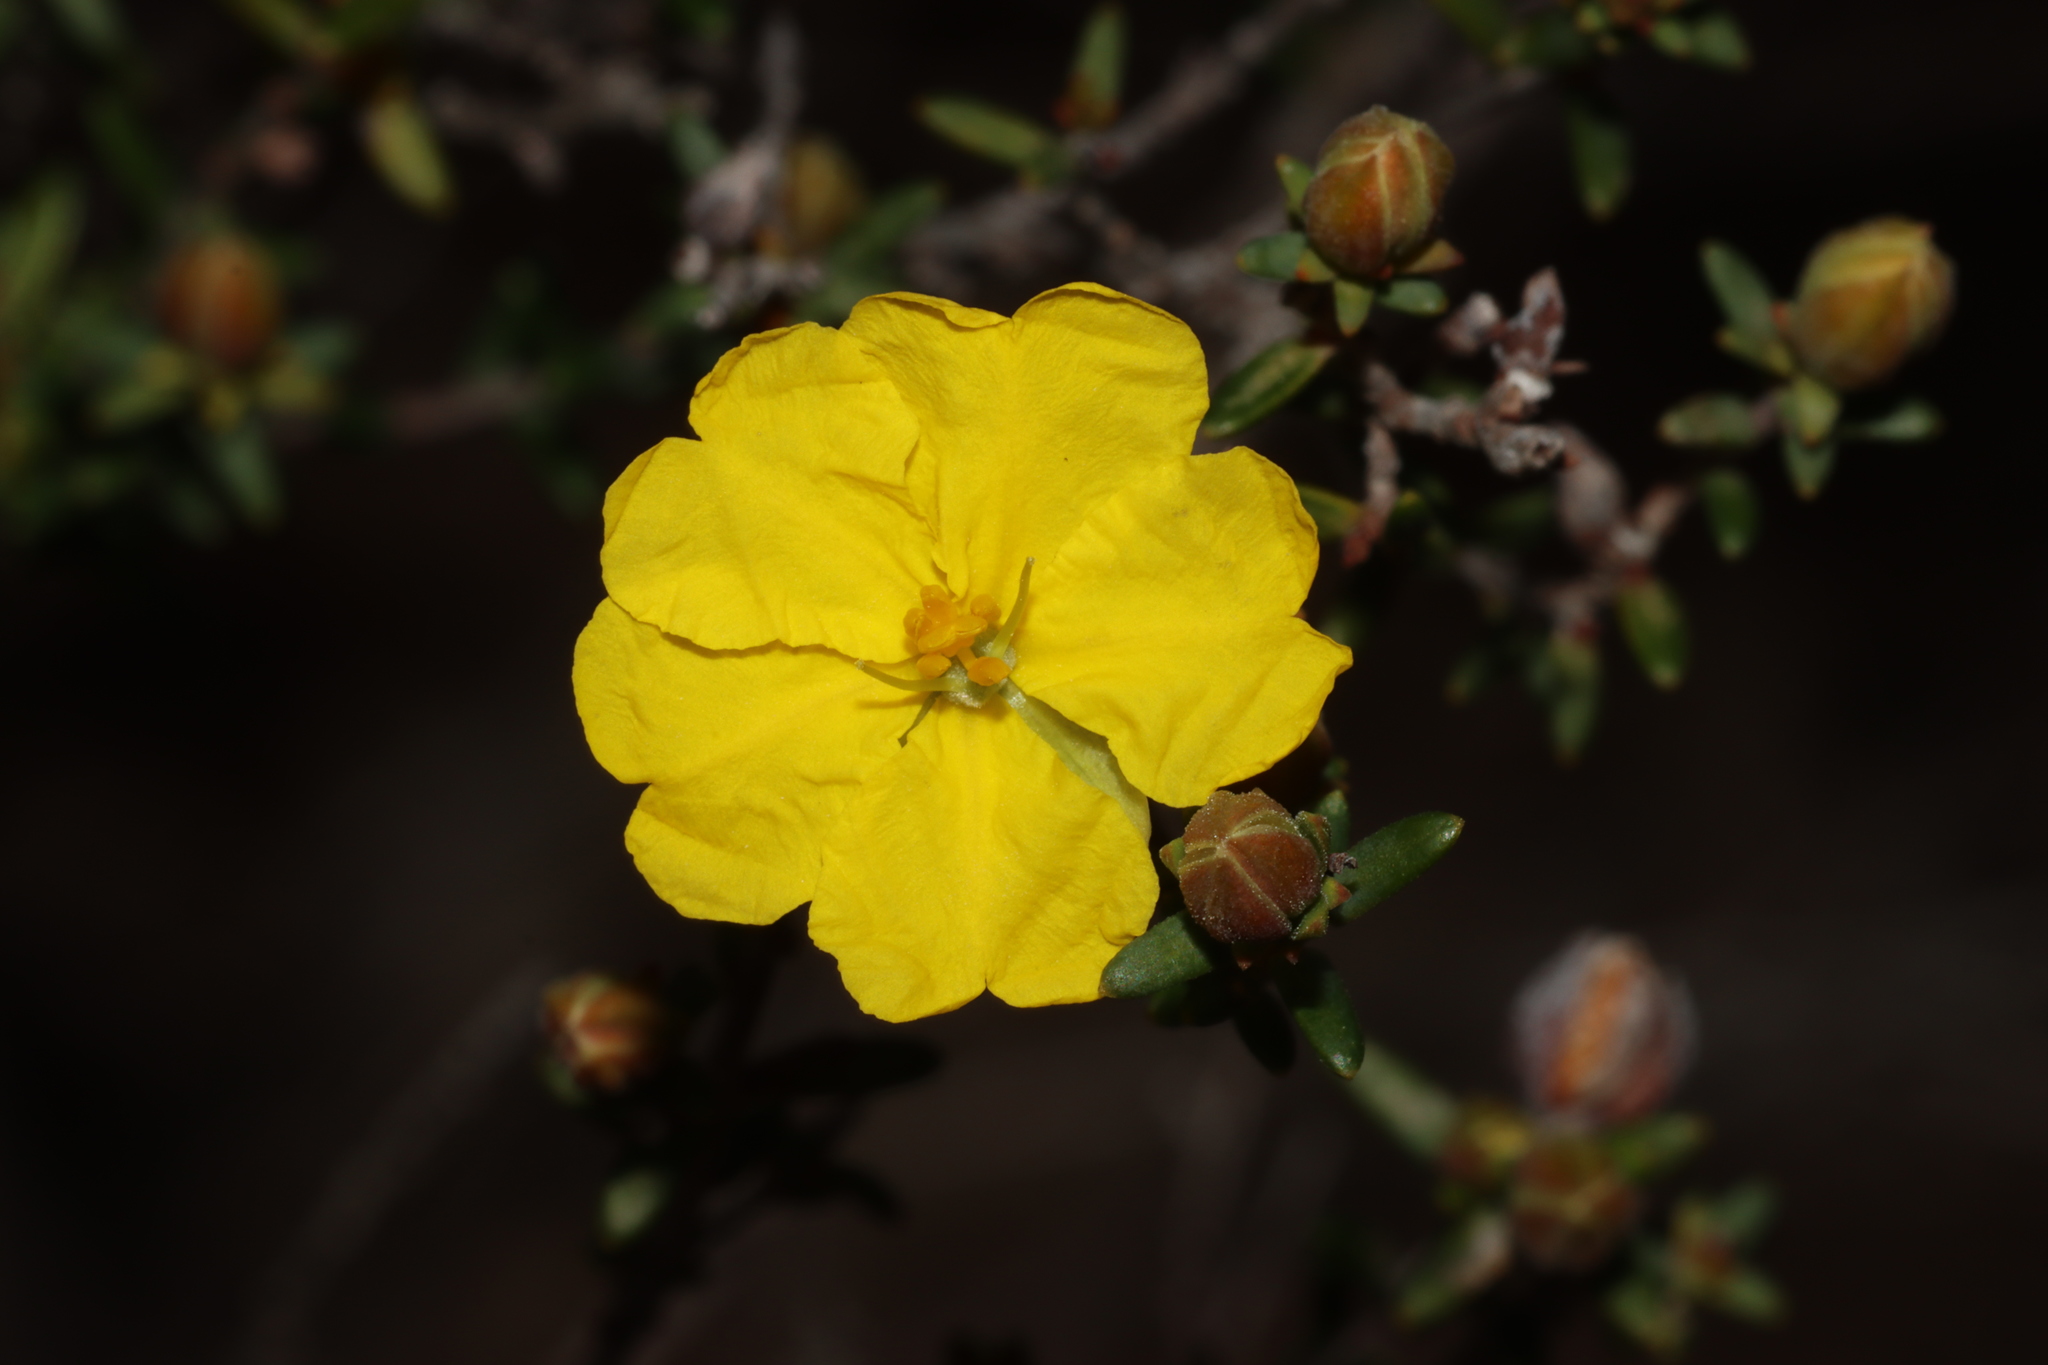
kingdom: Plantae
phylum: Tracheophyta
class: Magnoliopsida
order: Dilleniales
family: Dilleniaceae
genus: Hibbertia
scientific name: Hibbertia devitata
